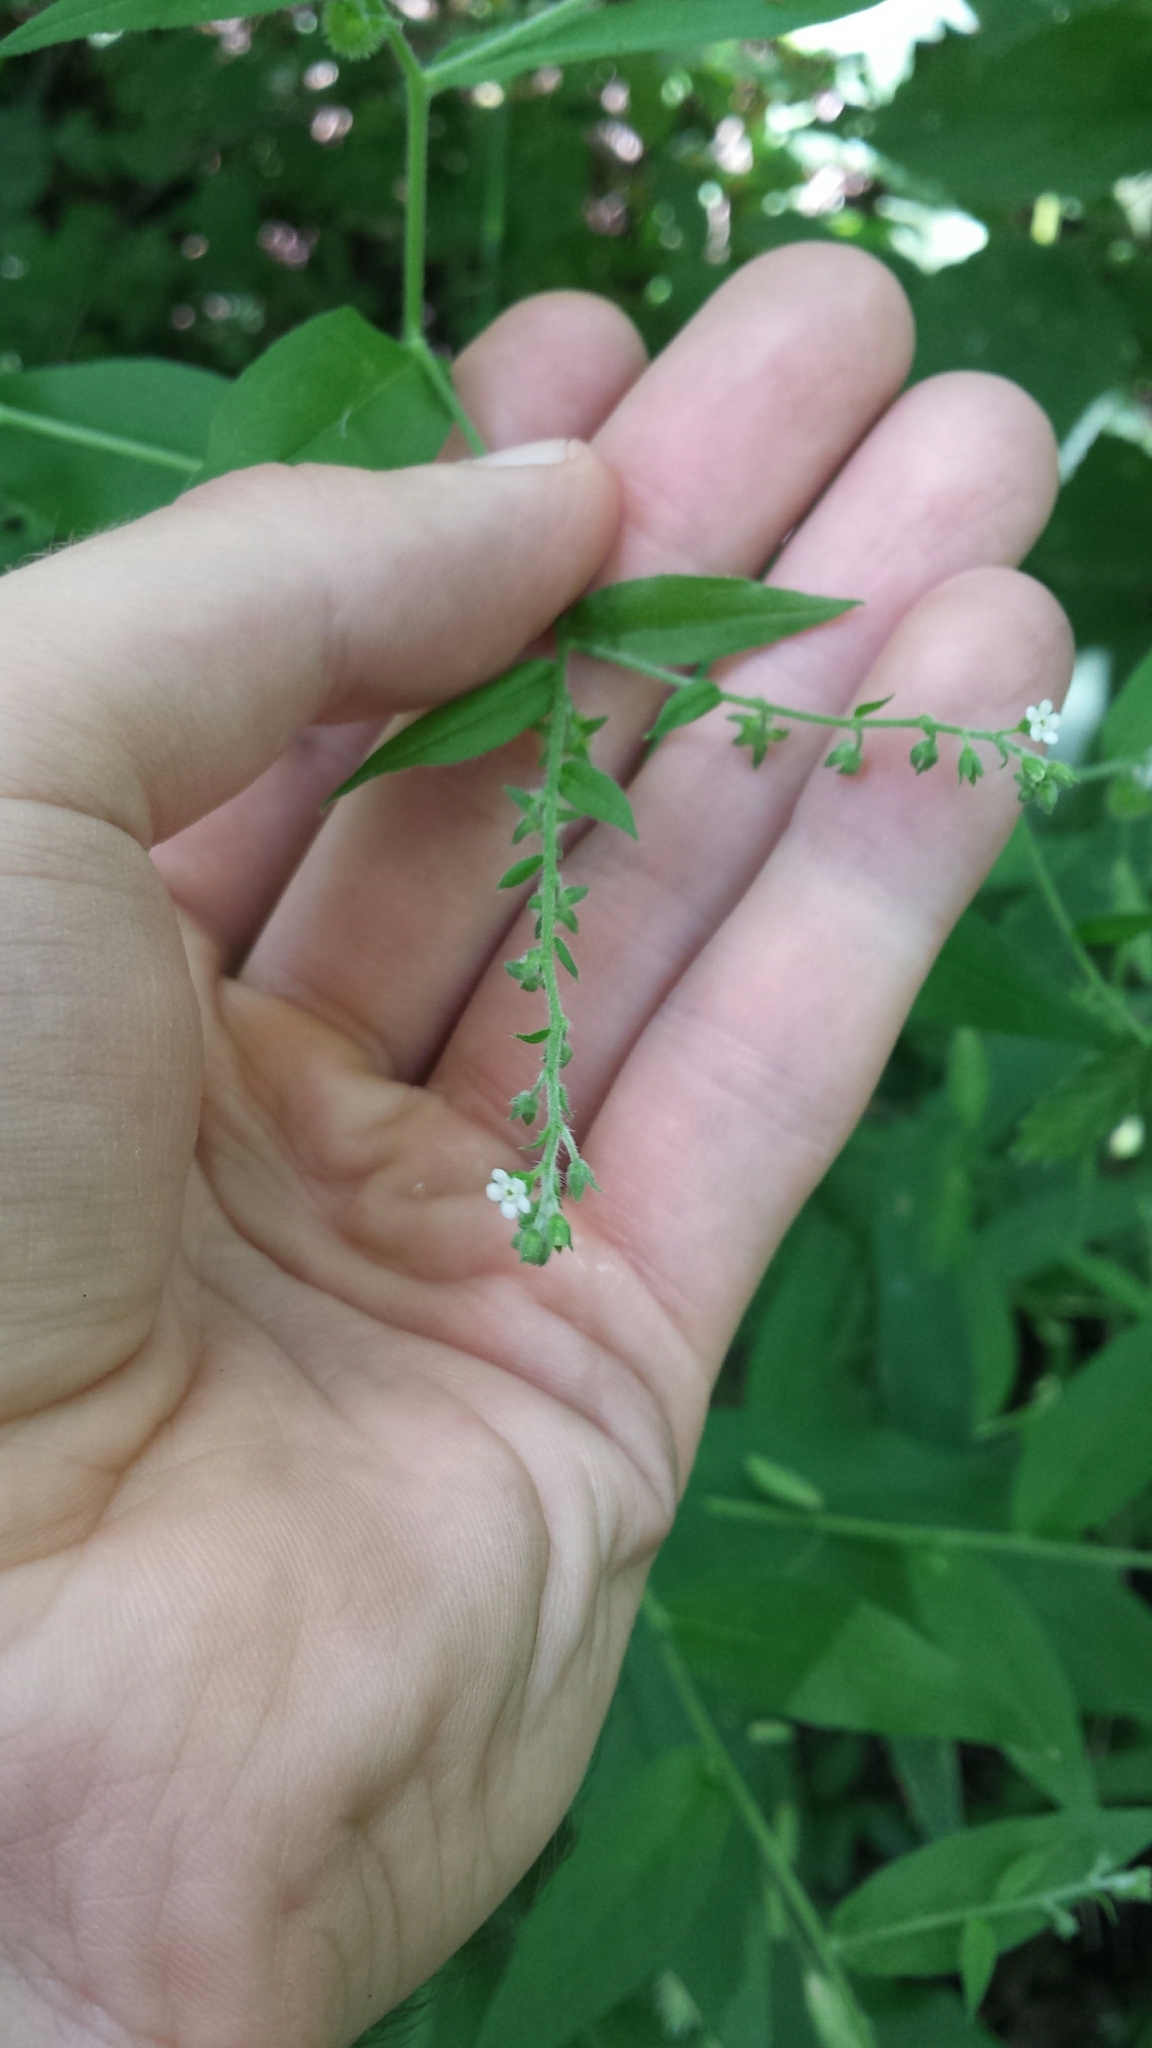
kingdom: Plantae
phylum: Tracheophyta
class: Magnoliopsida
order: Boraginales
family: Boraginaceae
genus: Hackelia
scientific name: Hackelia virginiana
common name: Beggar's-lice
